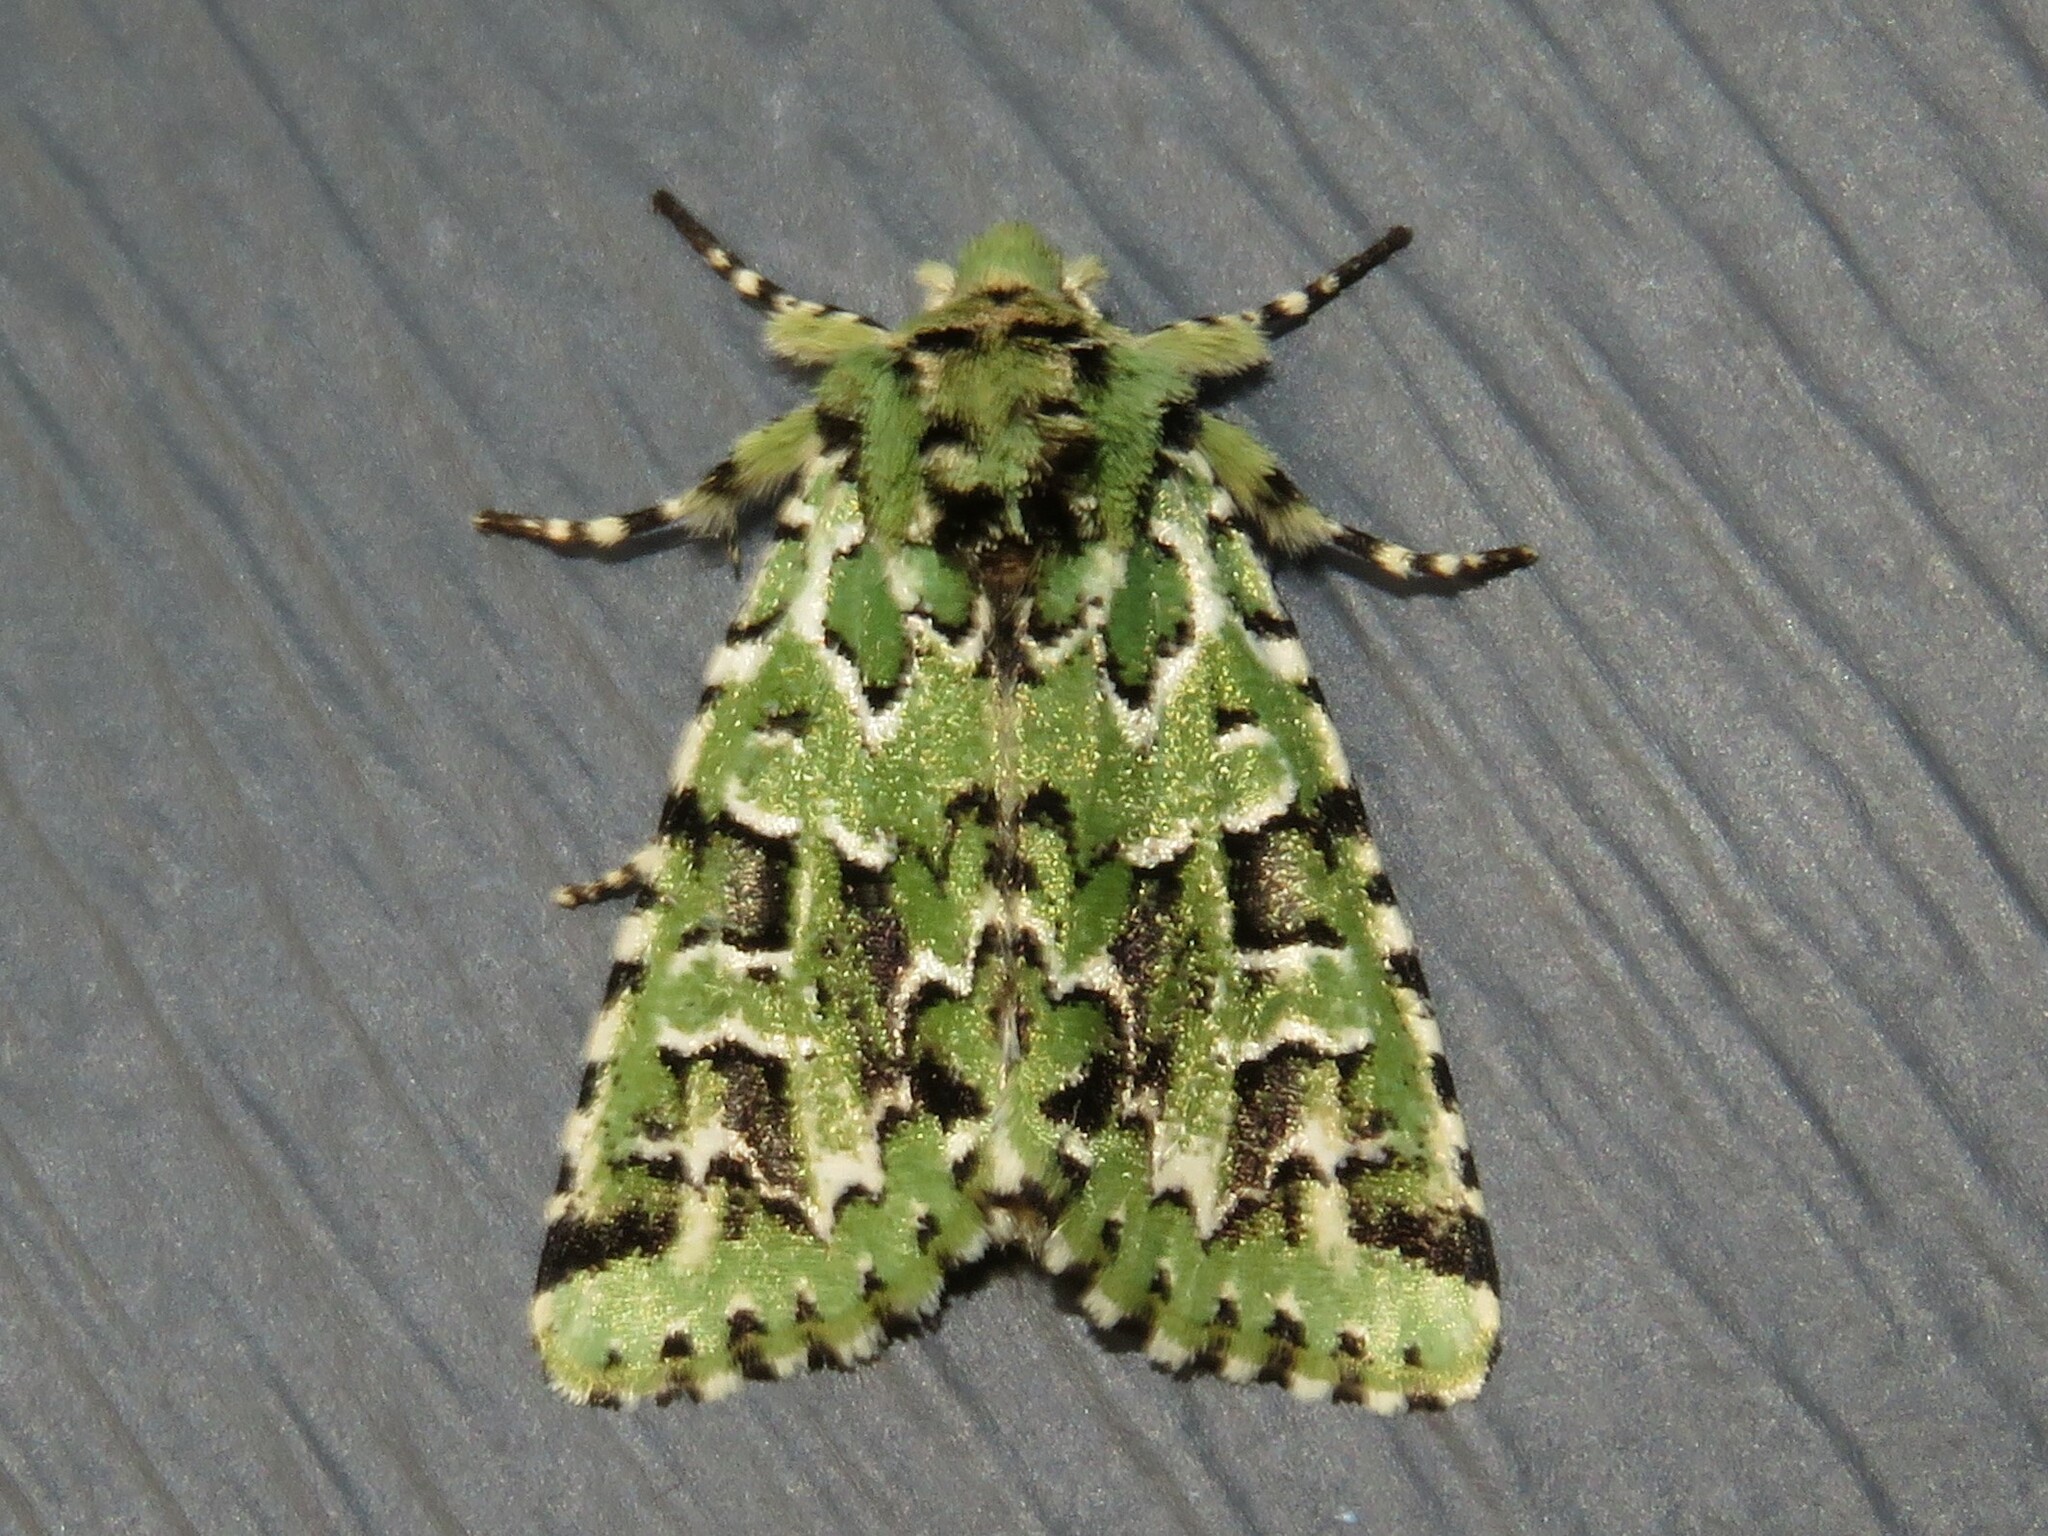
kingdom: Animalia
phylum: Arthropoda
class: Insecta
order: Lepidoptera
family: Noctuidae
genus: Feralia
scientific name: Feralia comstocki
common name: Comstock's sallow
